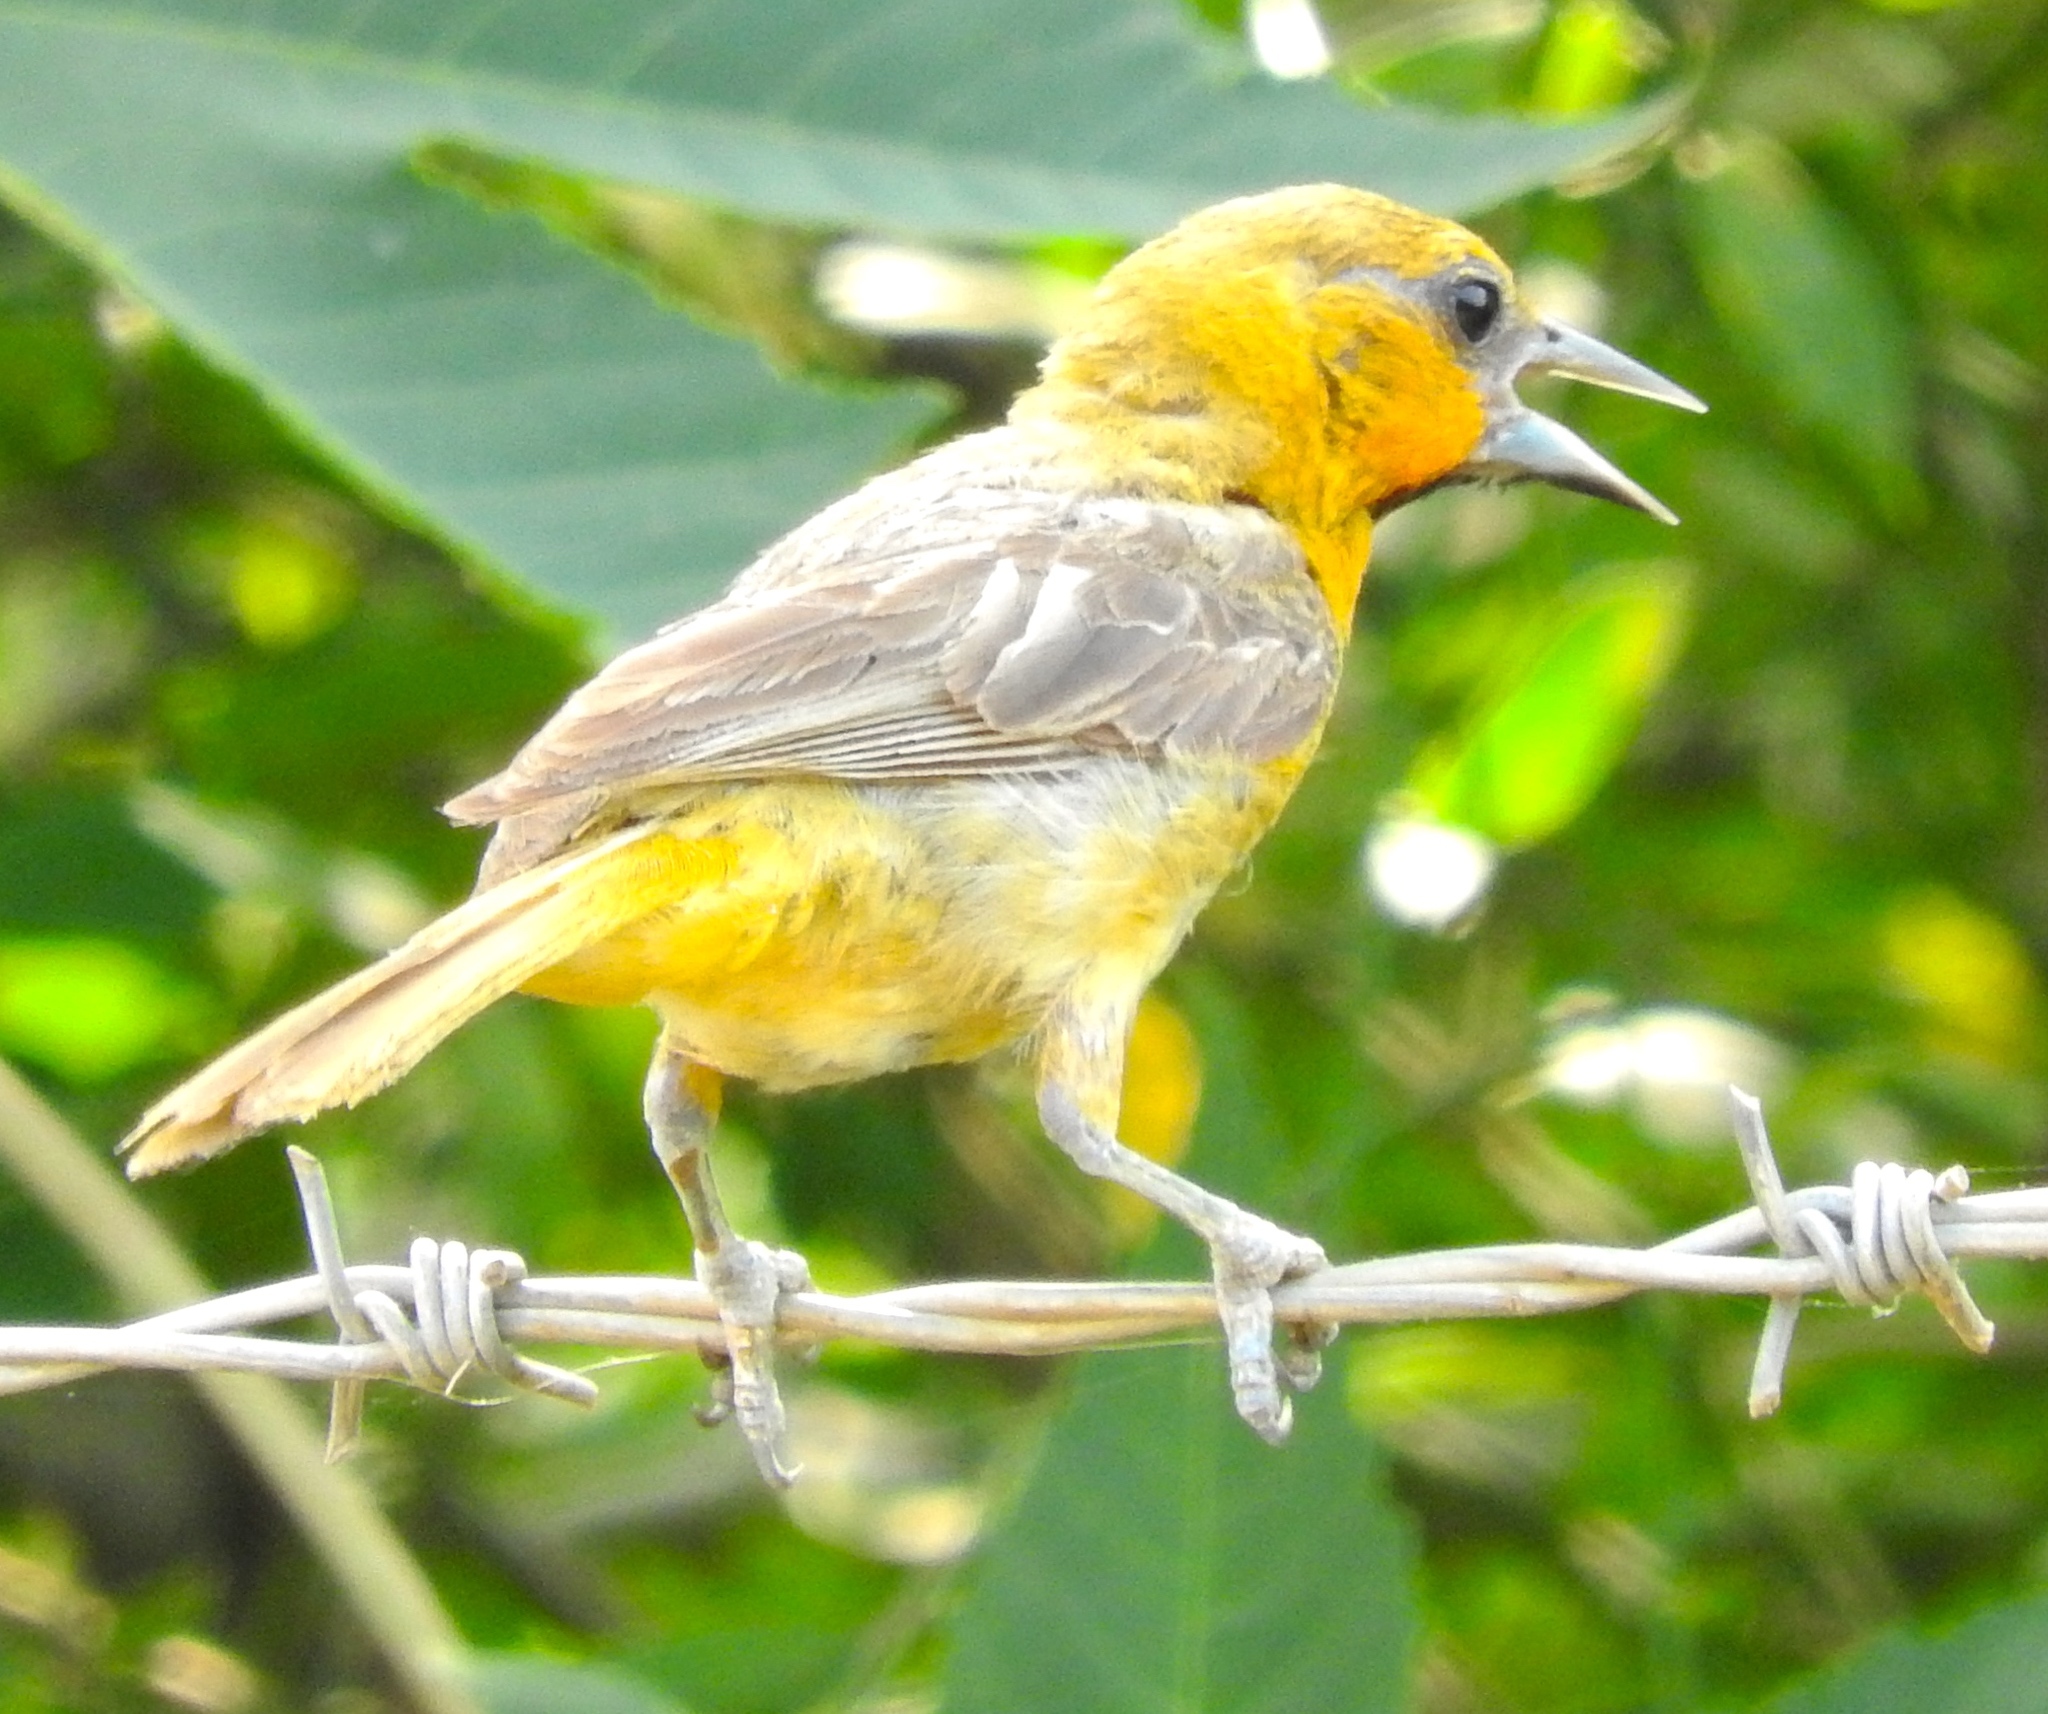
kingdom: Animalia
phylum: Chordata
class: Aves
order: Passeriformes
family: Icteridae
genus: Icterus
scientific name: Icterus pustulatus
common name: Streak-backed oriole
